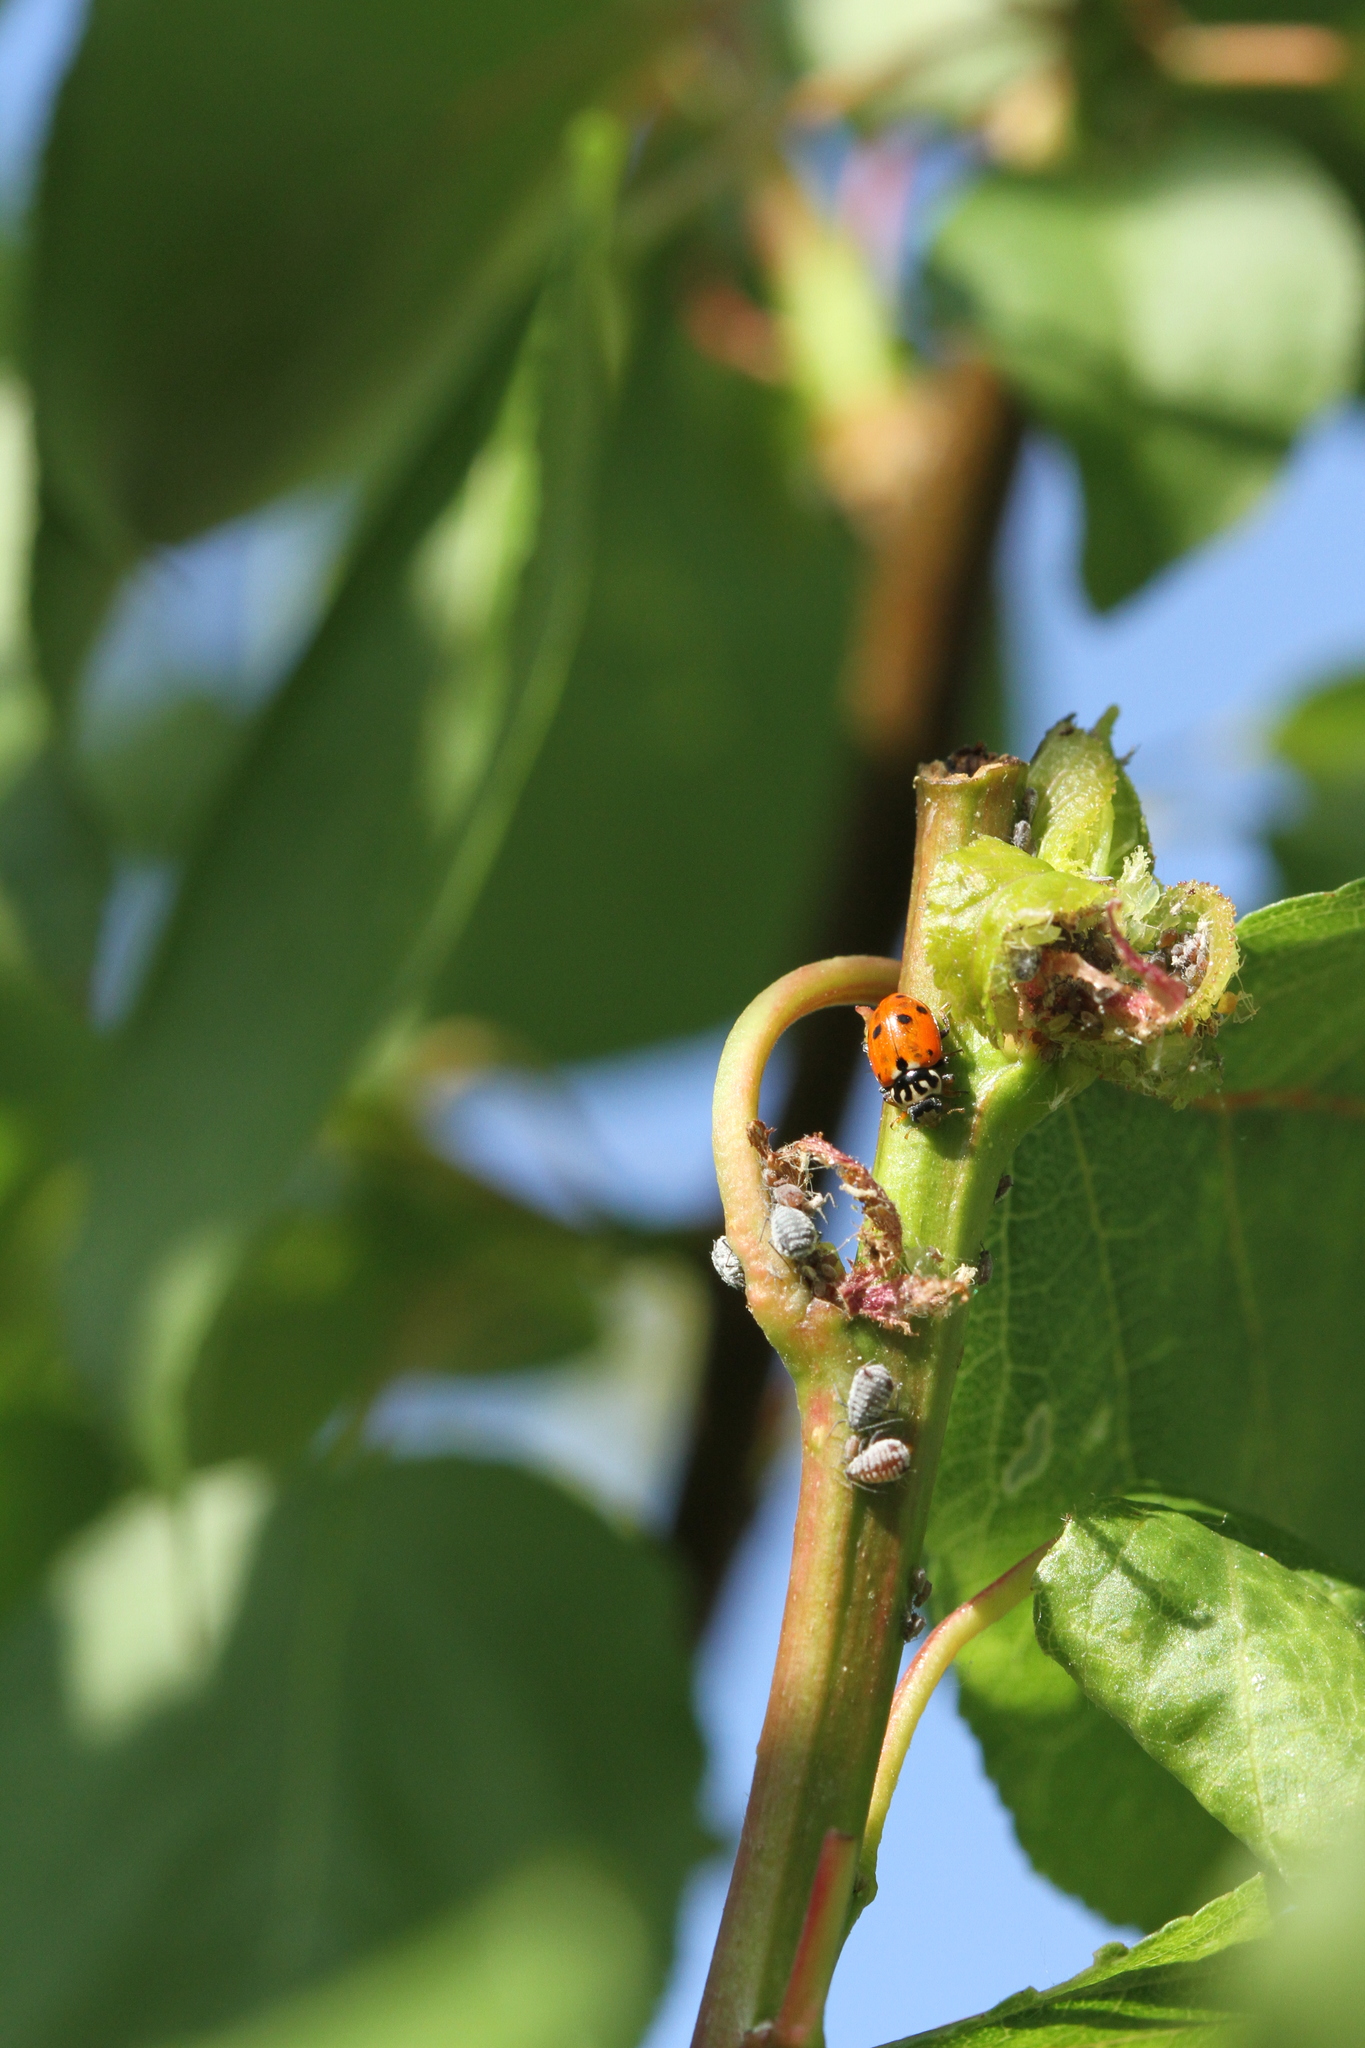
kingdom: Animalia
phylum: Arthropoda
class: Insecta
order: Coleoptera
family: Coccinellidae
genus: Hippodamia
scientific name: Hippodamia variegata
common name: Ladybird beetle
